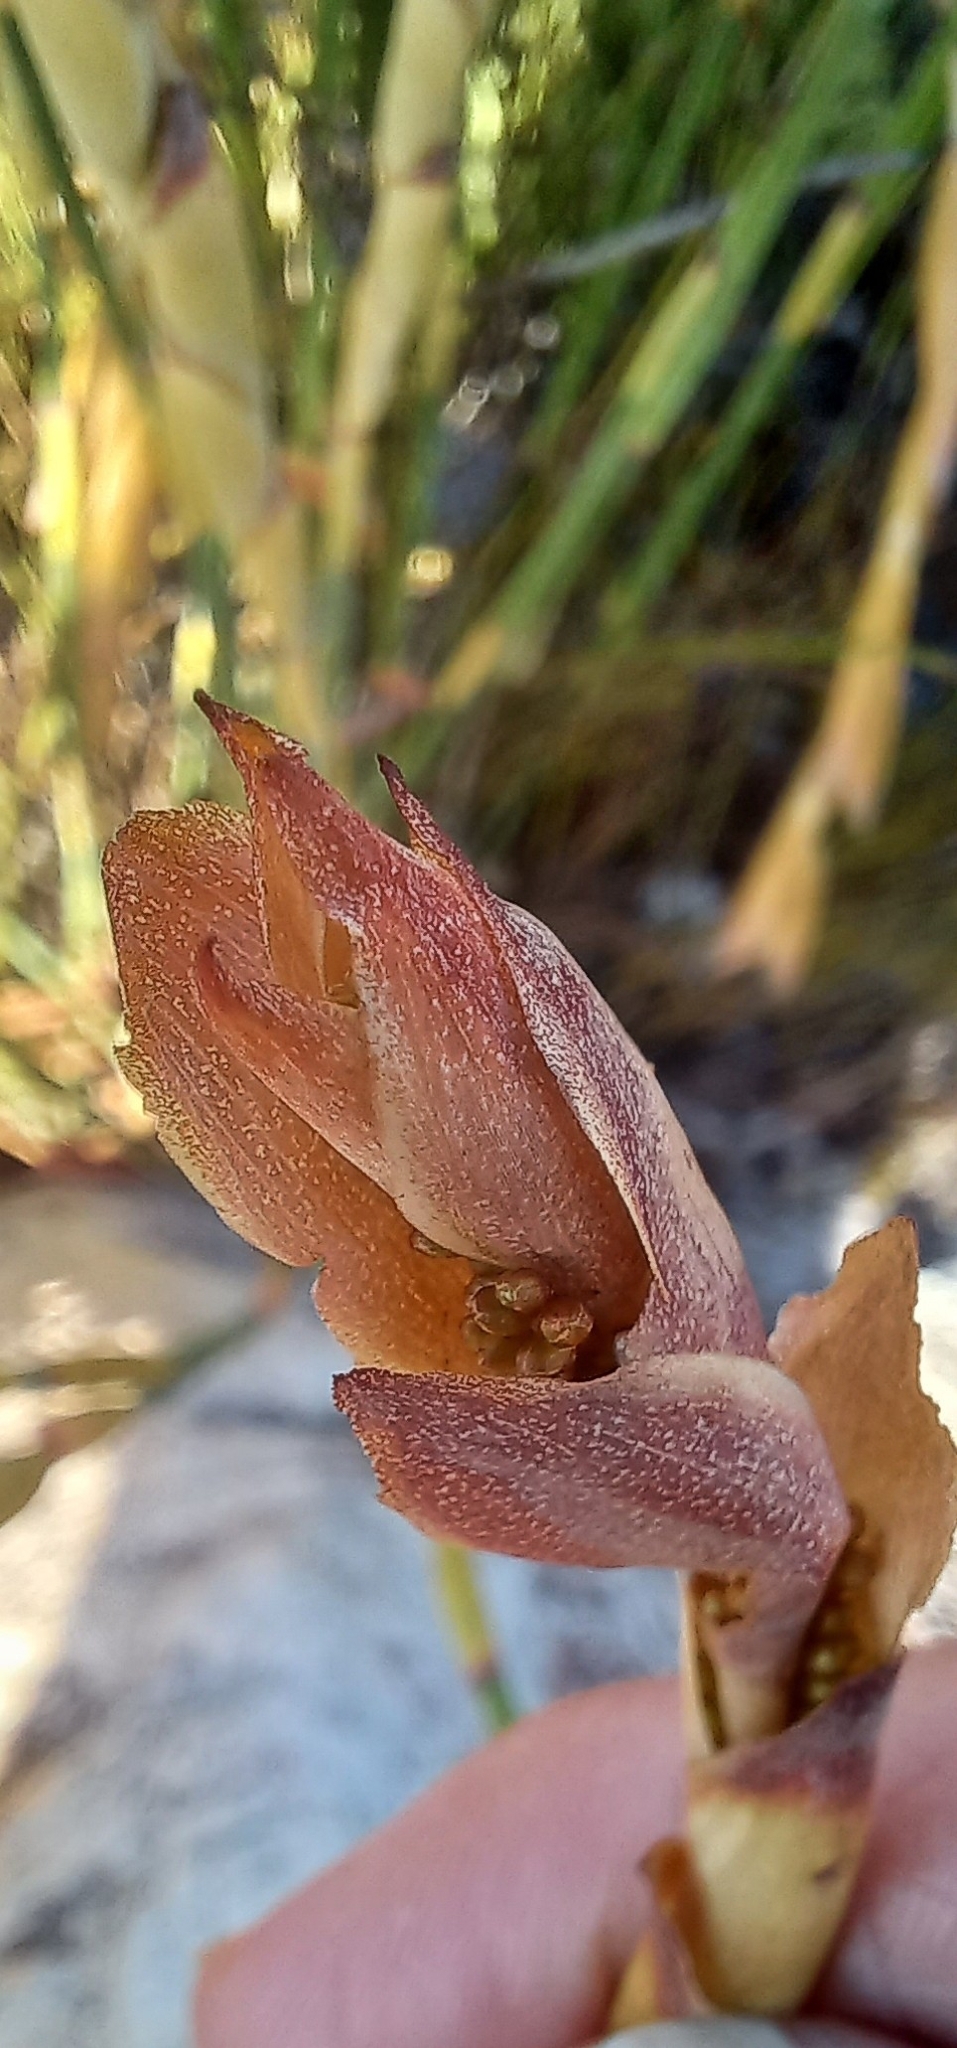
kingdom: Plantae
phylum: Tracheophyta
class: Liliopsida
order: Poales
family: Restionaceae
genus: Elegia
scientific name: Elegia persistens
